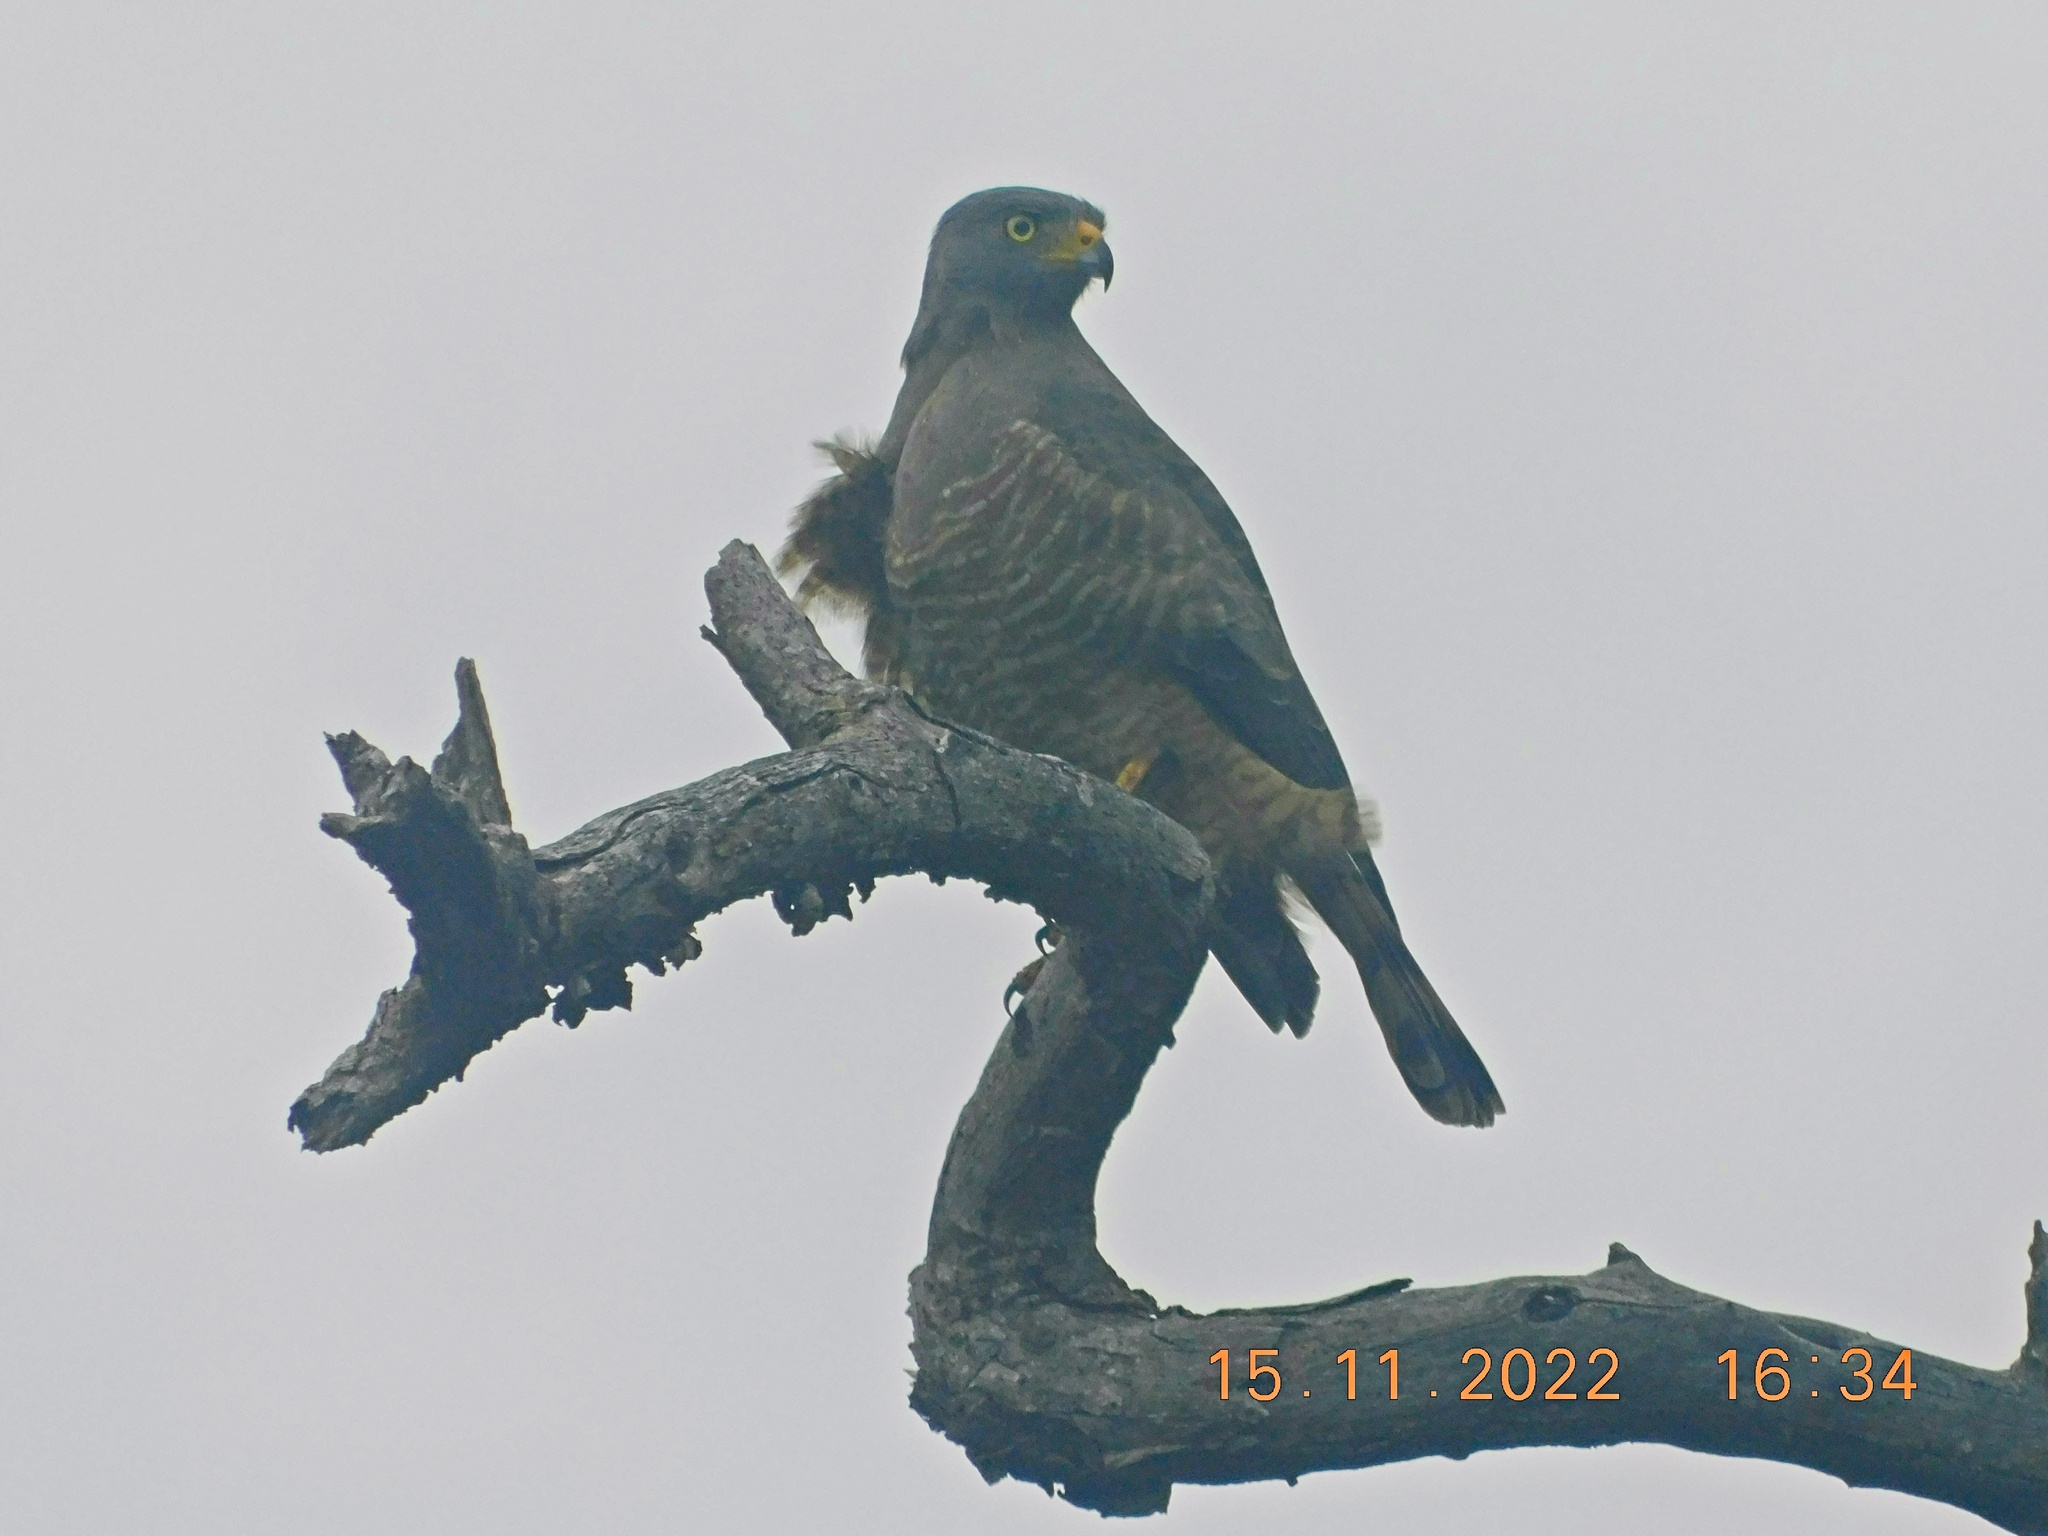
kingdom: Animalia
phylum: Chordata
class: Aves
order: Accipitriformes
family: Accipitridae
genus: Rupornis
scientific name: Rupornis magnirostris
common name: Roadside hawk
